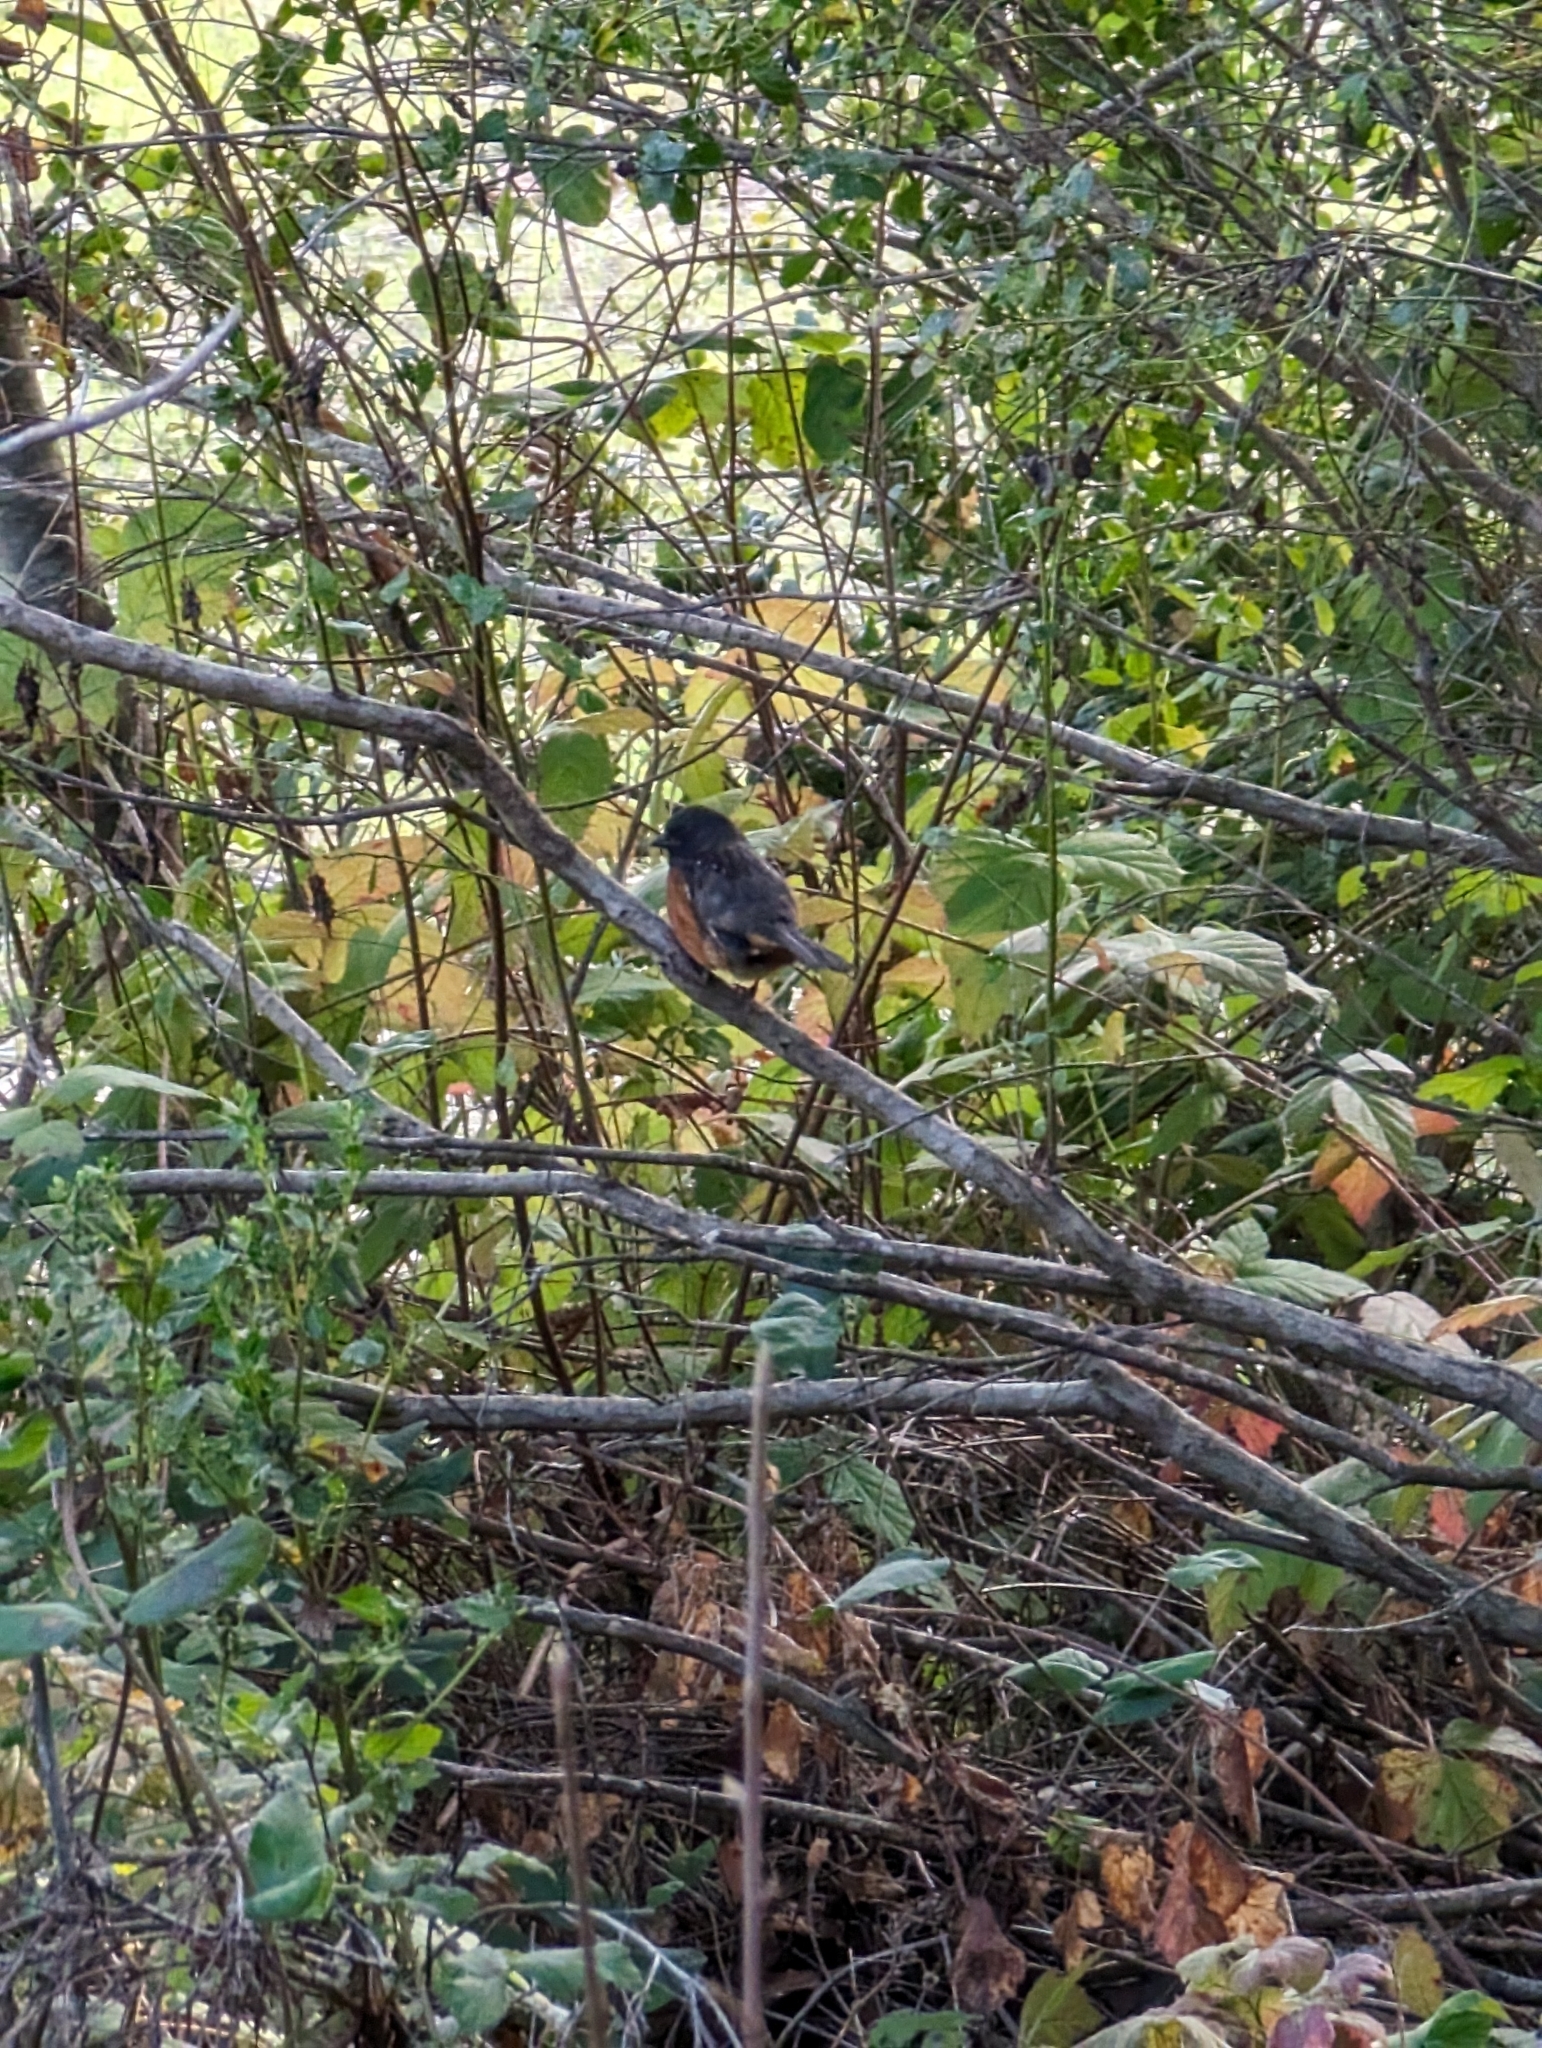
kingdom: Animalia
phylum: Chordata
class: Aves
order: Passeriformes
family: Passerellidae
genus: Pipilo
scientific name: Pipilo maculatus
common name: Spotted towhee
